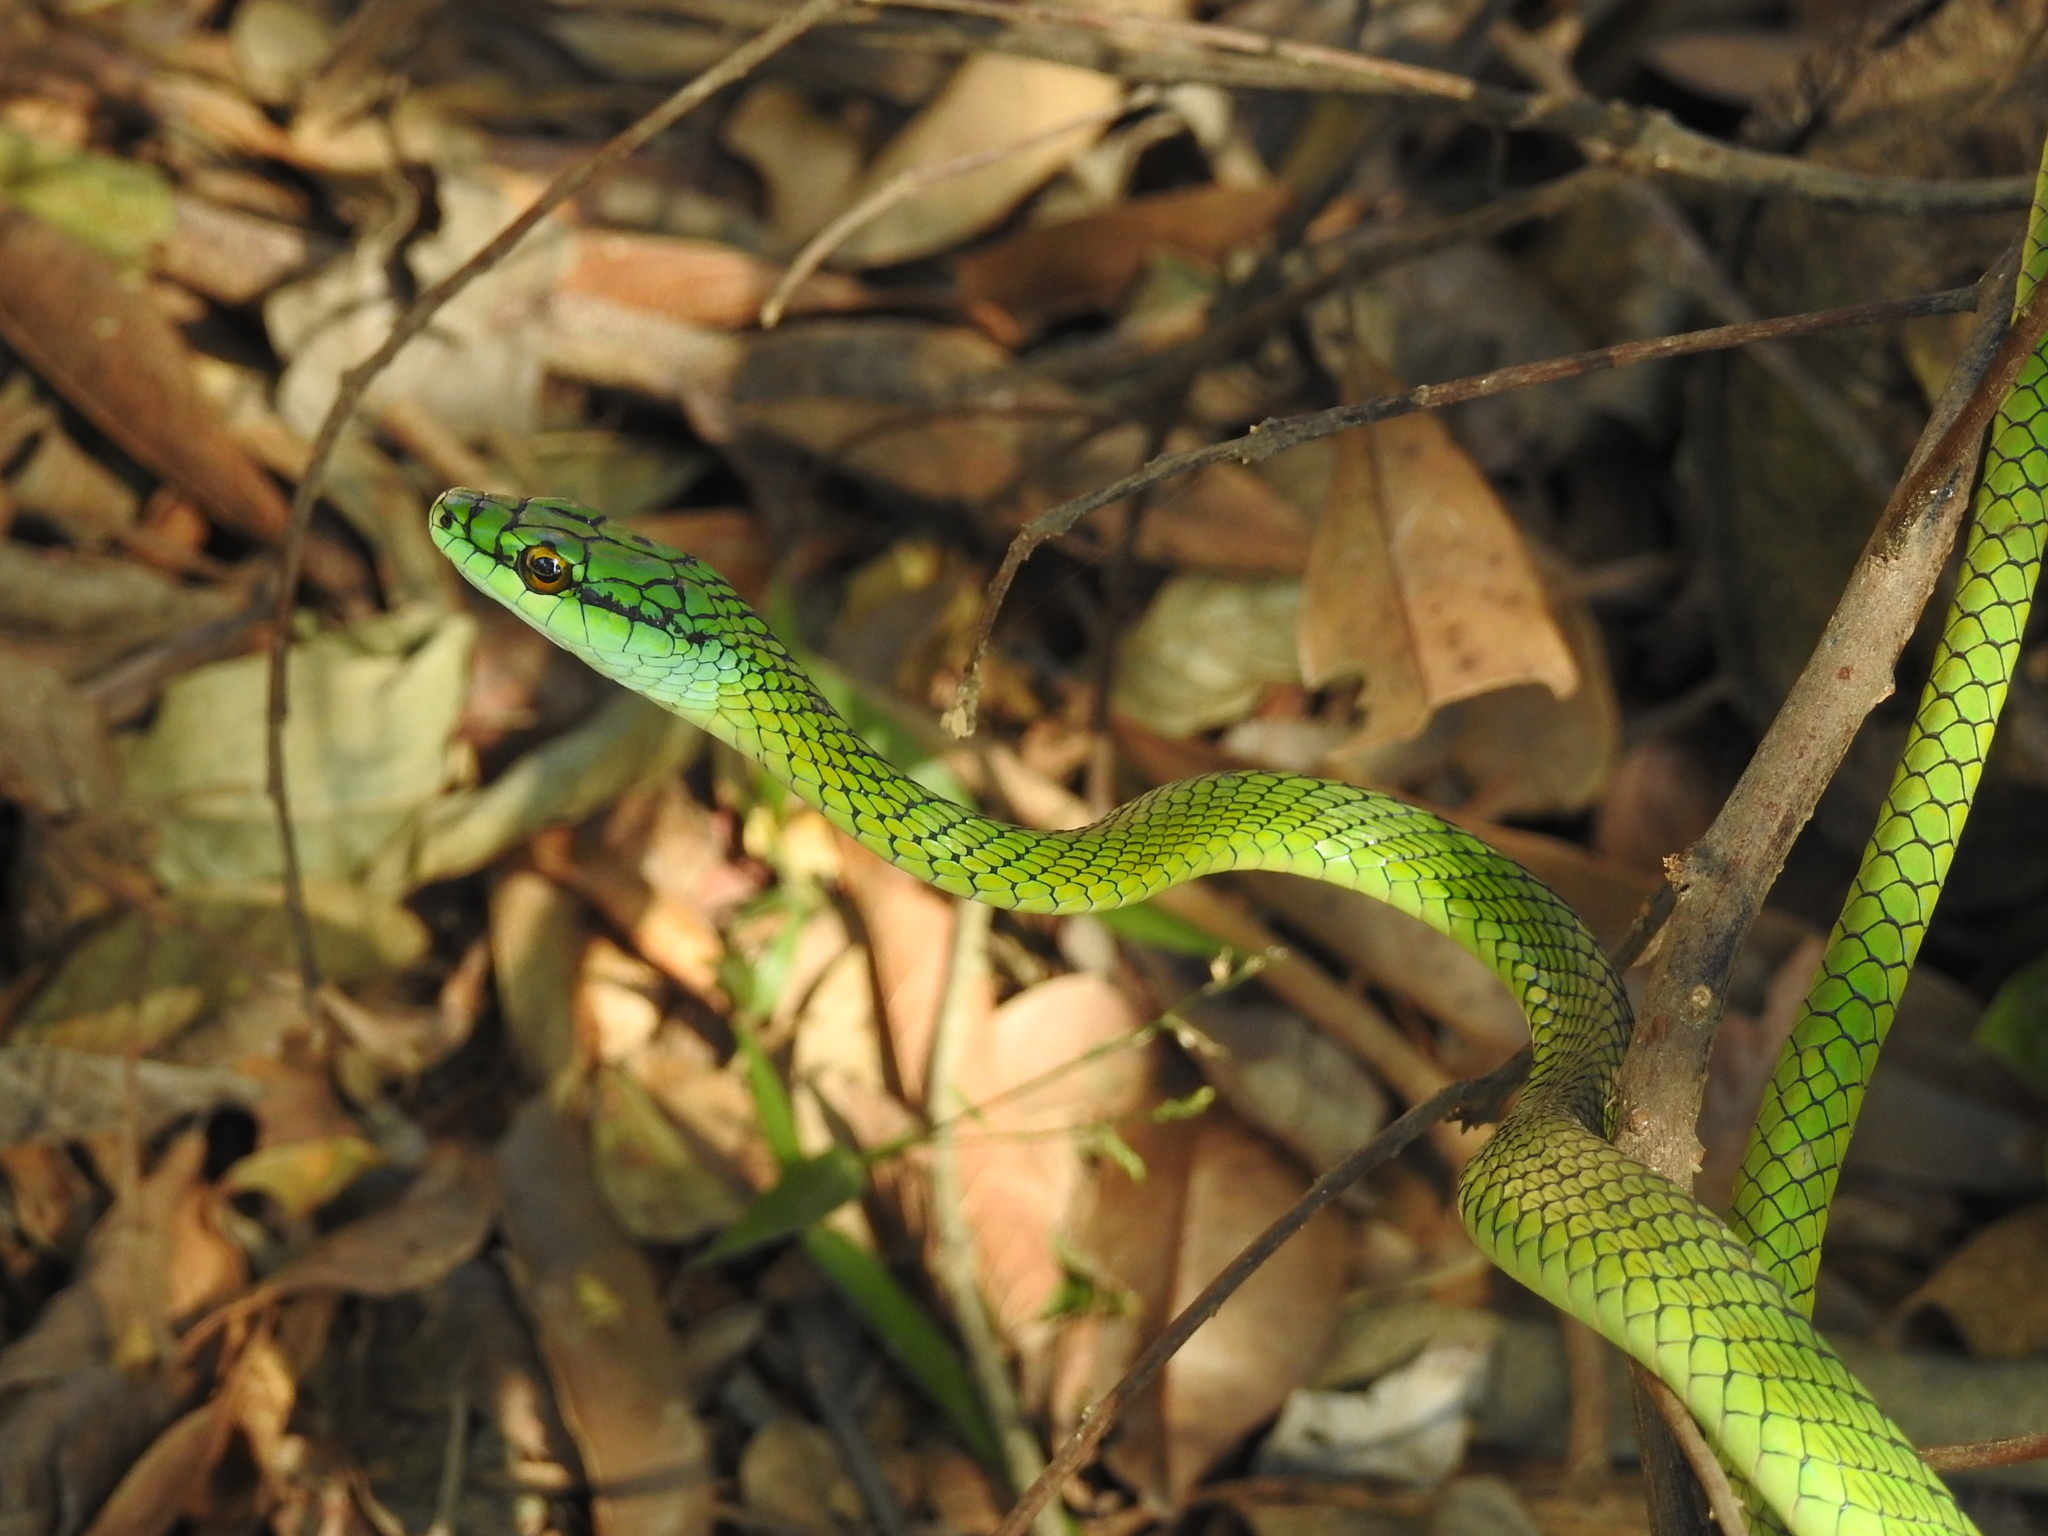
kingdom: Animalia
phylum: Chordata
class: Squamata
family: Colubridae
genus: Leptophis
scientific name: Leptophis ahaetulla
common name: Parrot snake
